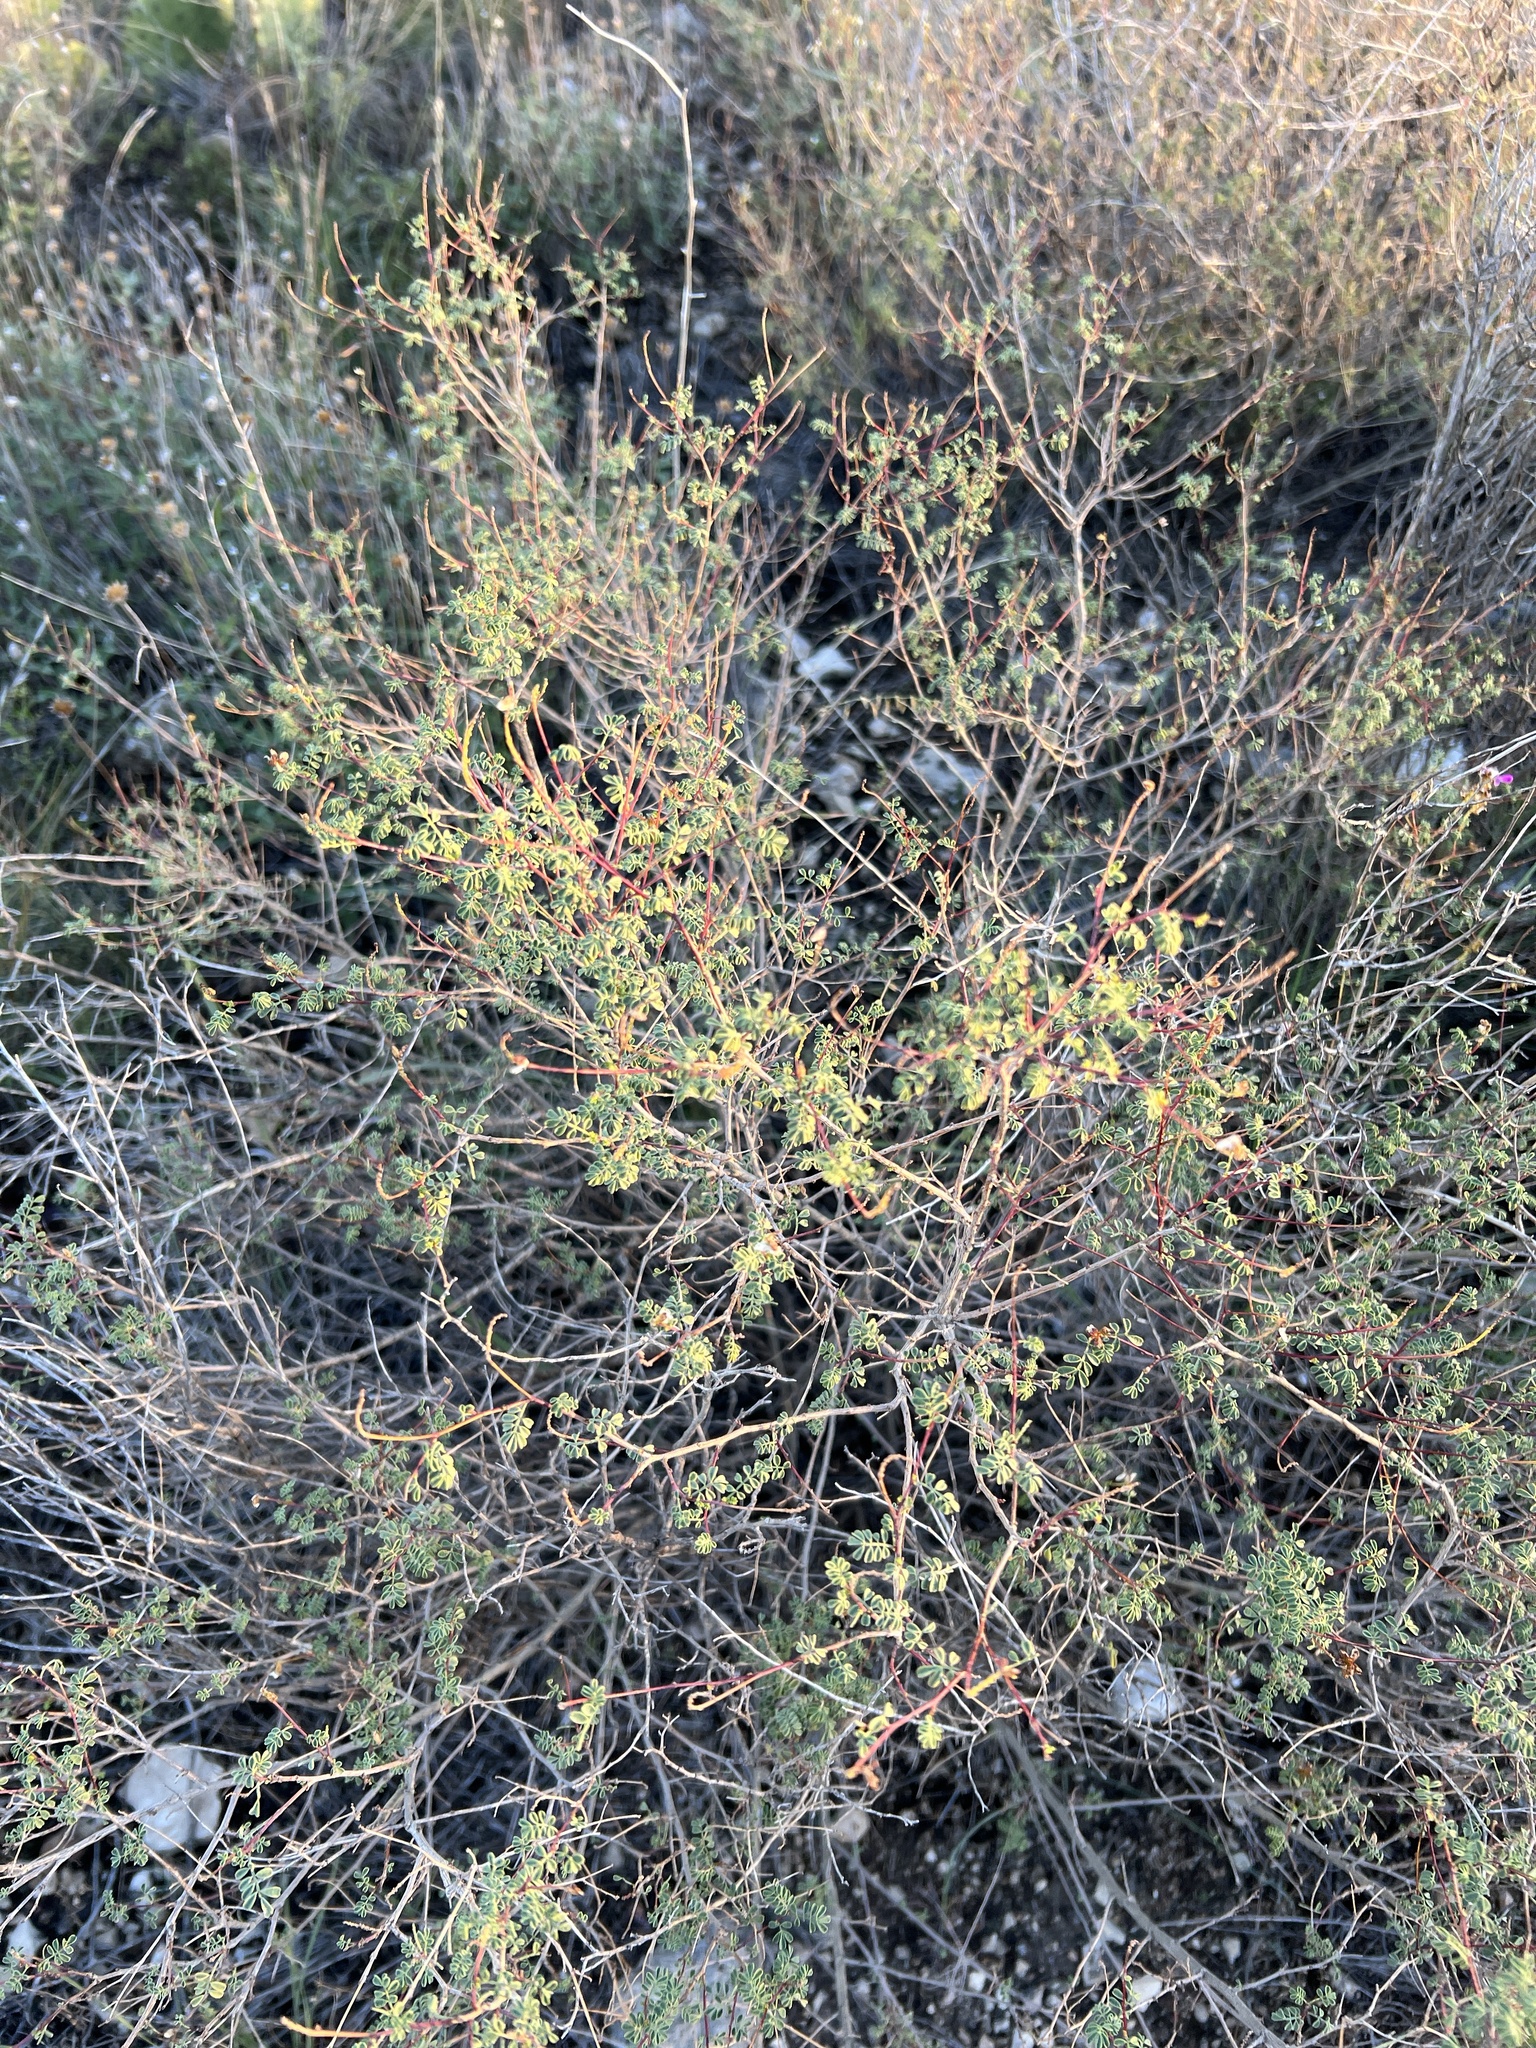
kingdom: Plantae
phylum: Tracheophyta
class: Magnoliopsida
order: Fabales
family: Fabaceae
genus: Dalea
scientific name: Dalea frutescens
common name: Black dalea
